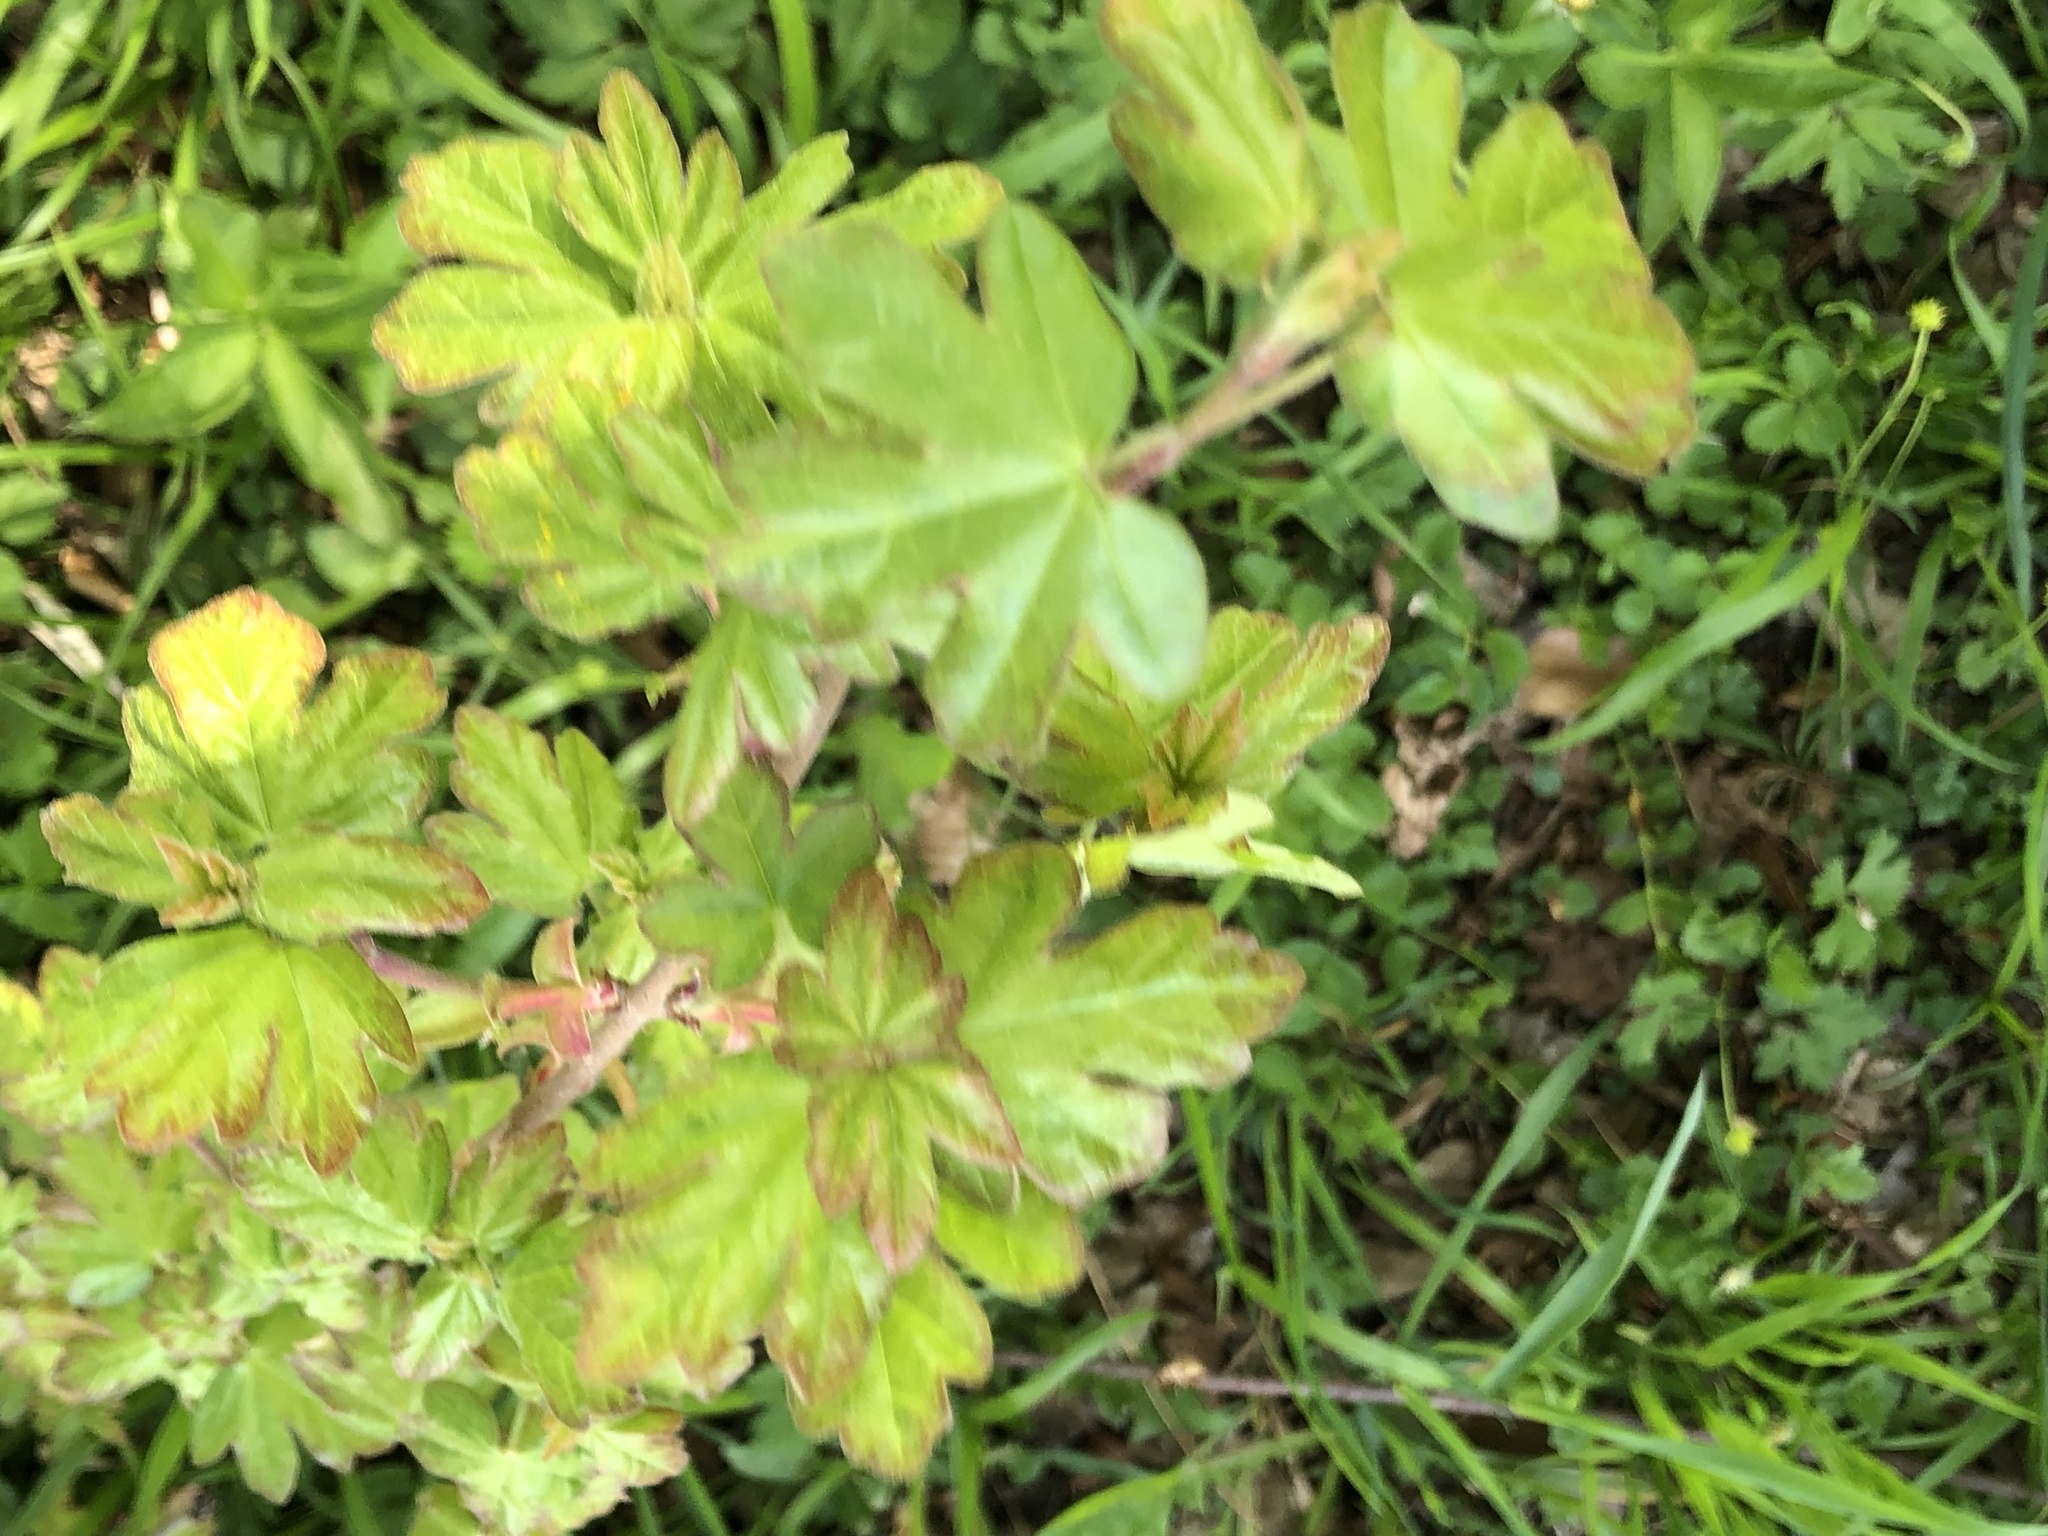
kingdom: Plantae
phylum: Tracheophyta
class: Magnoliopsida
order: Sapindales
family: Sapindaceae
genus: Acer
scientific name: Acer campestre
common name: Field maple
